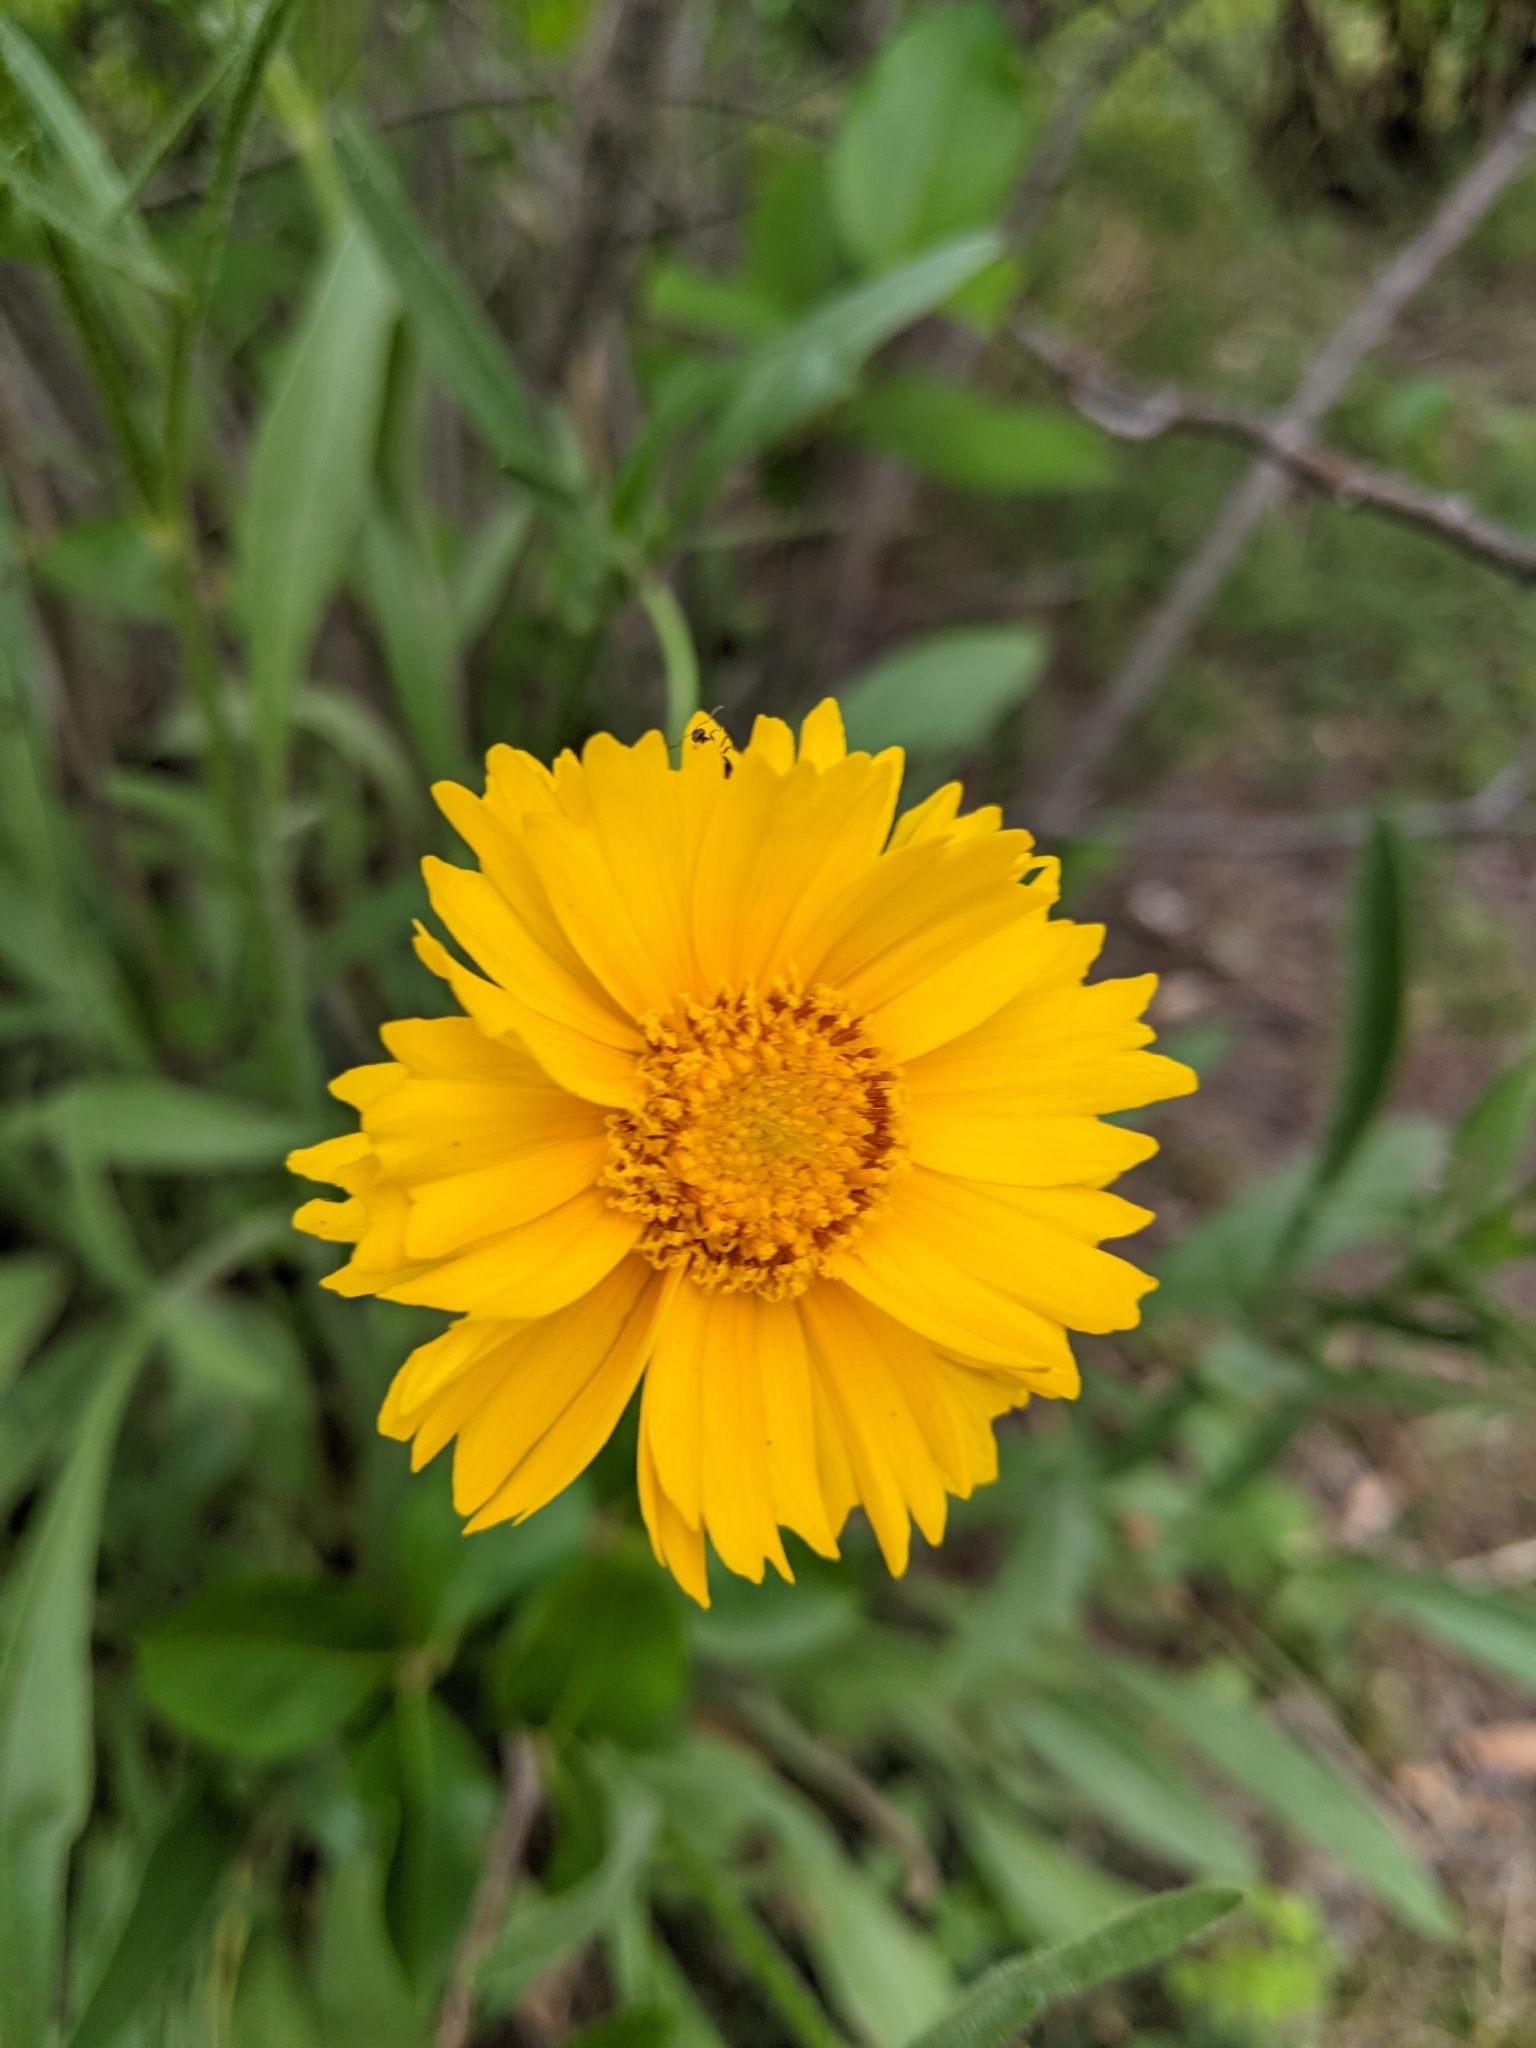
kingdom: Plantae
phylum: Tracheophyta
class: Magnoliopsida
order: Asterales
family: Asteraceae
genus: Coreopsis
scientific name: Coreopsis lanceolata
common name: Garden coreopsis
